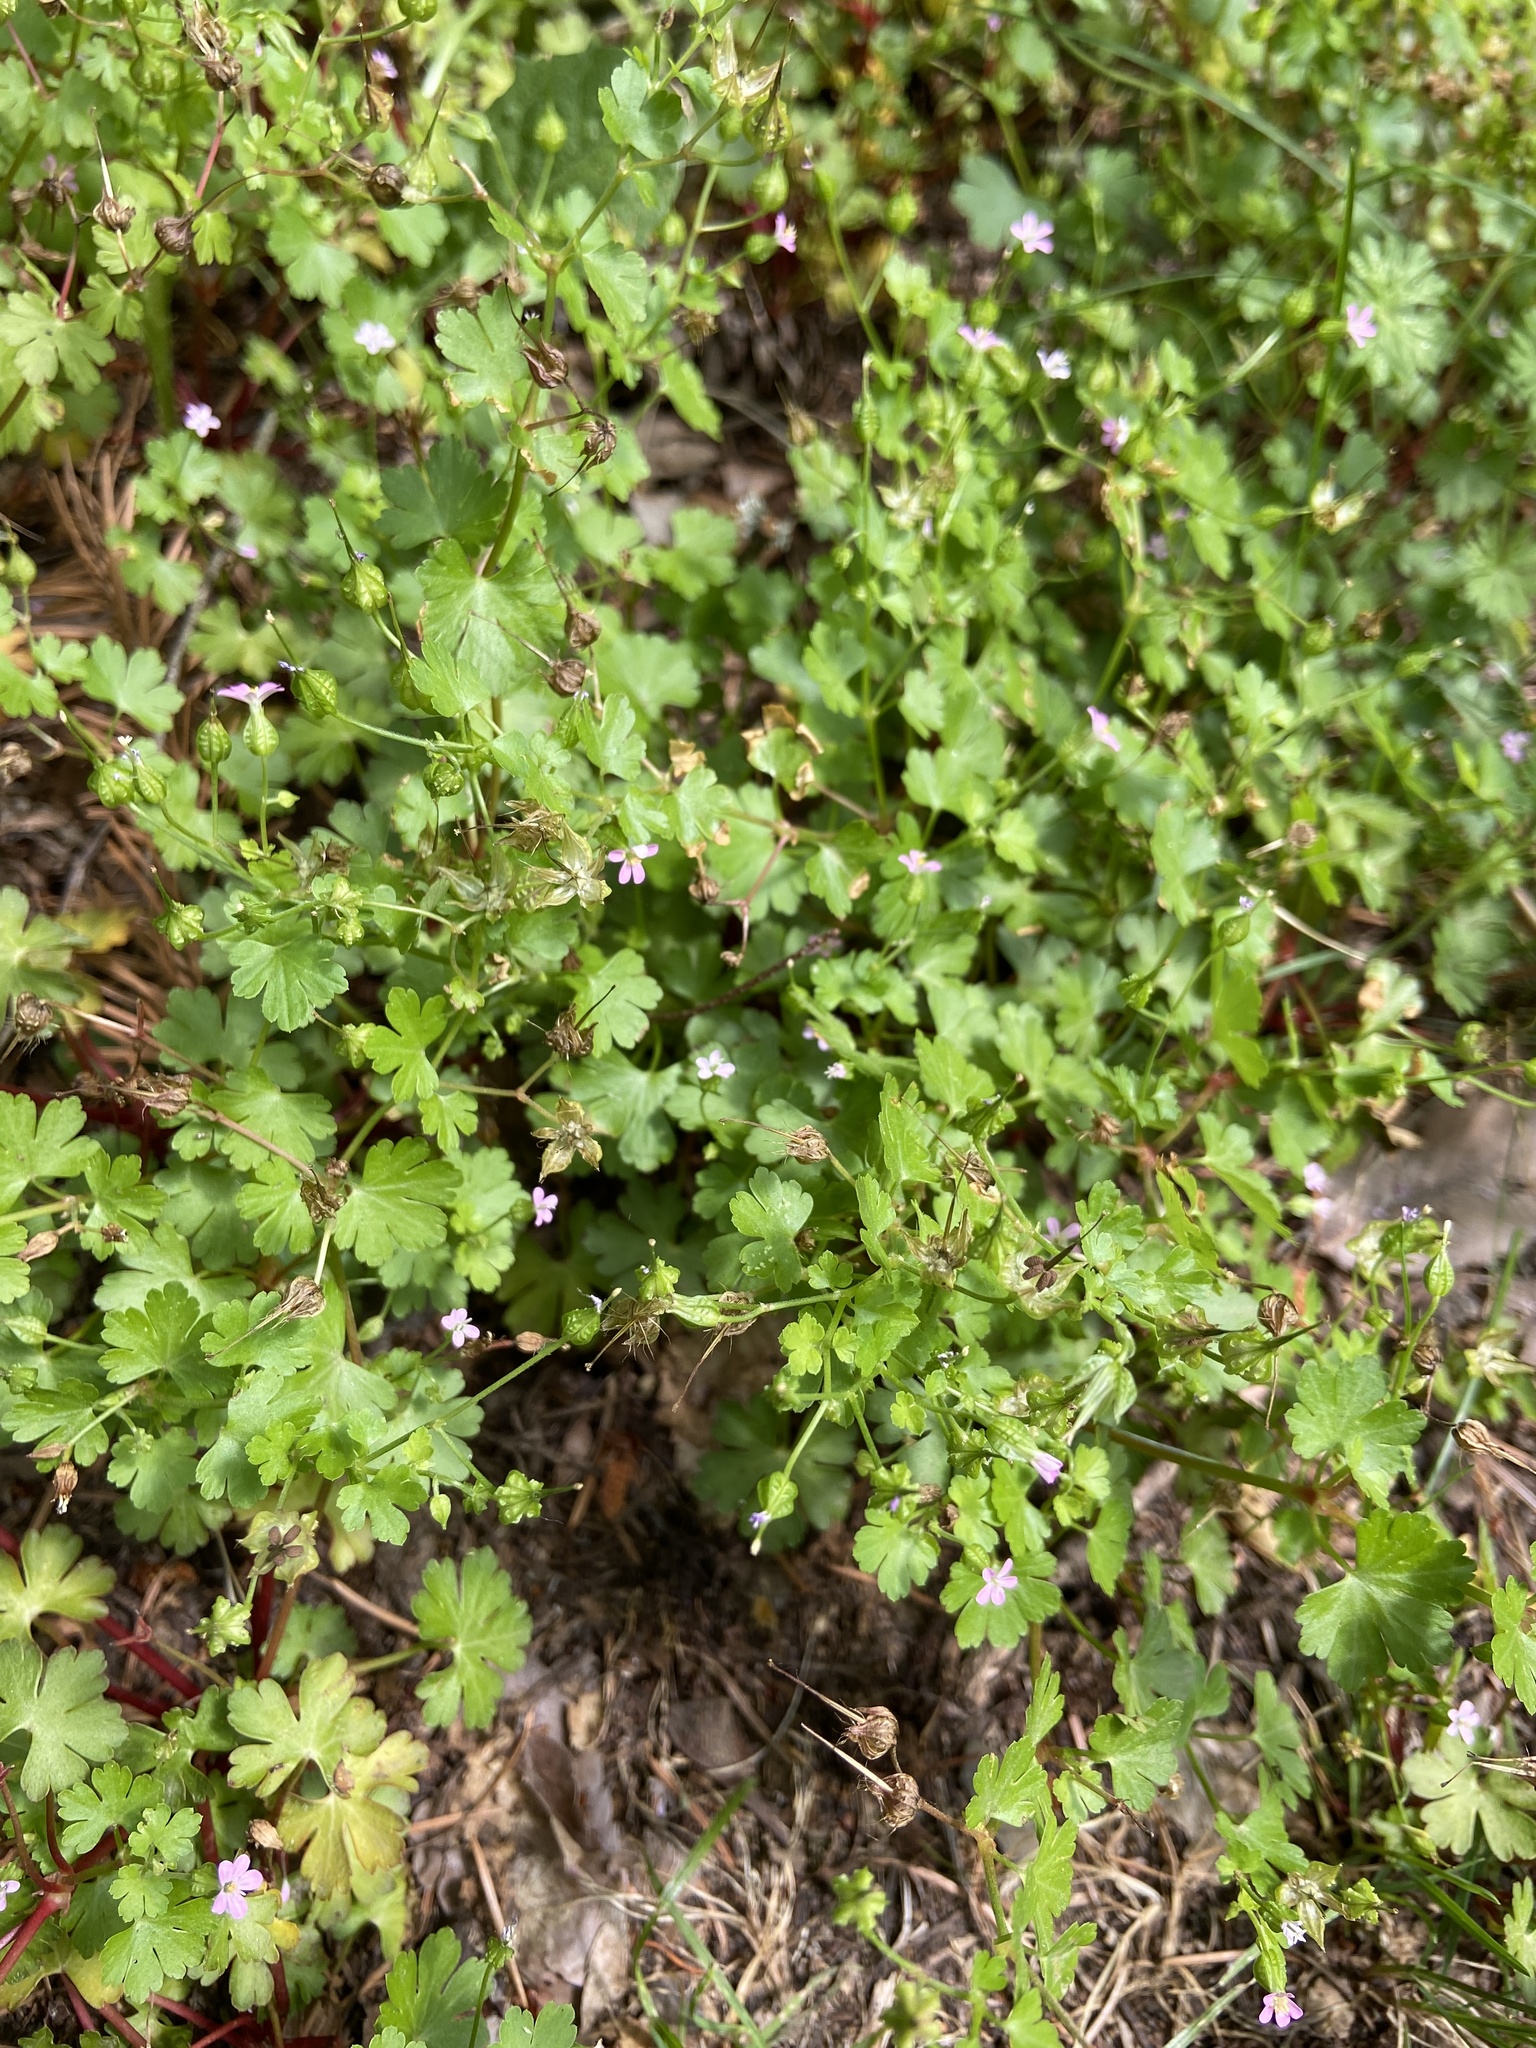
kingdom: Plantae
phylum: Tracheophyta
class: Magnoliopsida
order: Geraniales
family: Geraniaceae
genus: Geranium
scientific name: Geranium lucidum
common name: Shining crane's-bill
